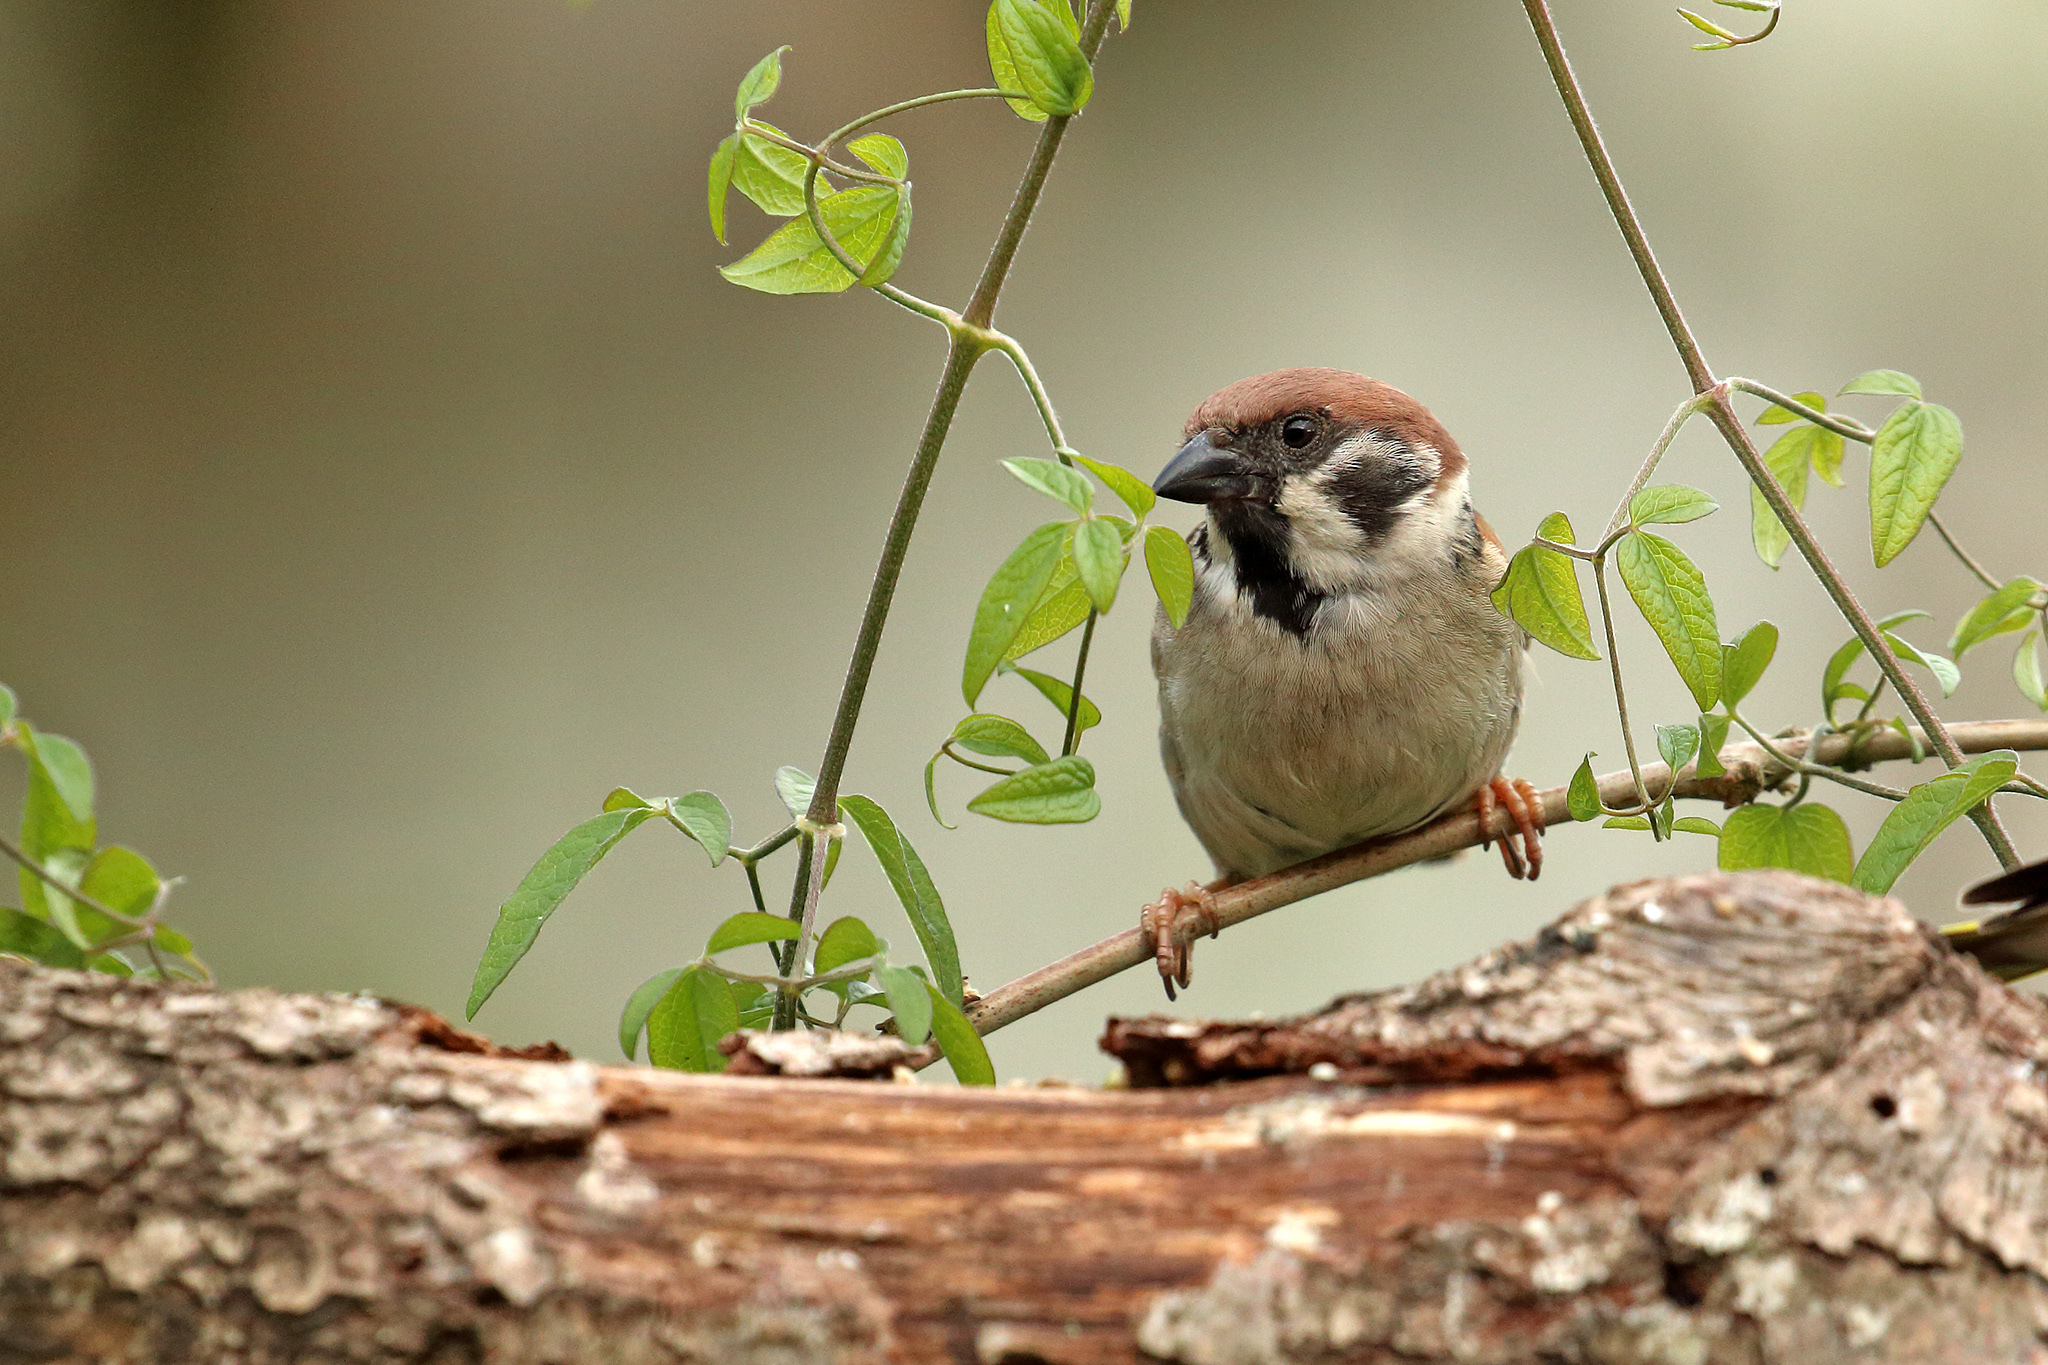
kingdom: Animalia
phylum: Chordata
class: Aves
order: Passeriformes
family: Passeridae
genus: Passer
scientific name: Passer montanus
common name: Eurasian tree sparrow
